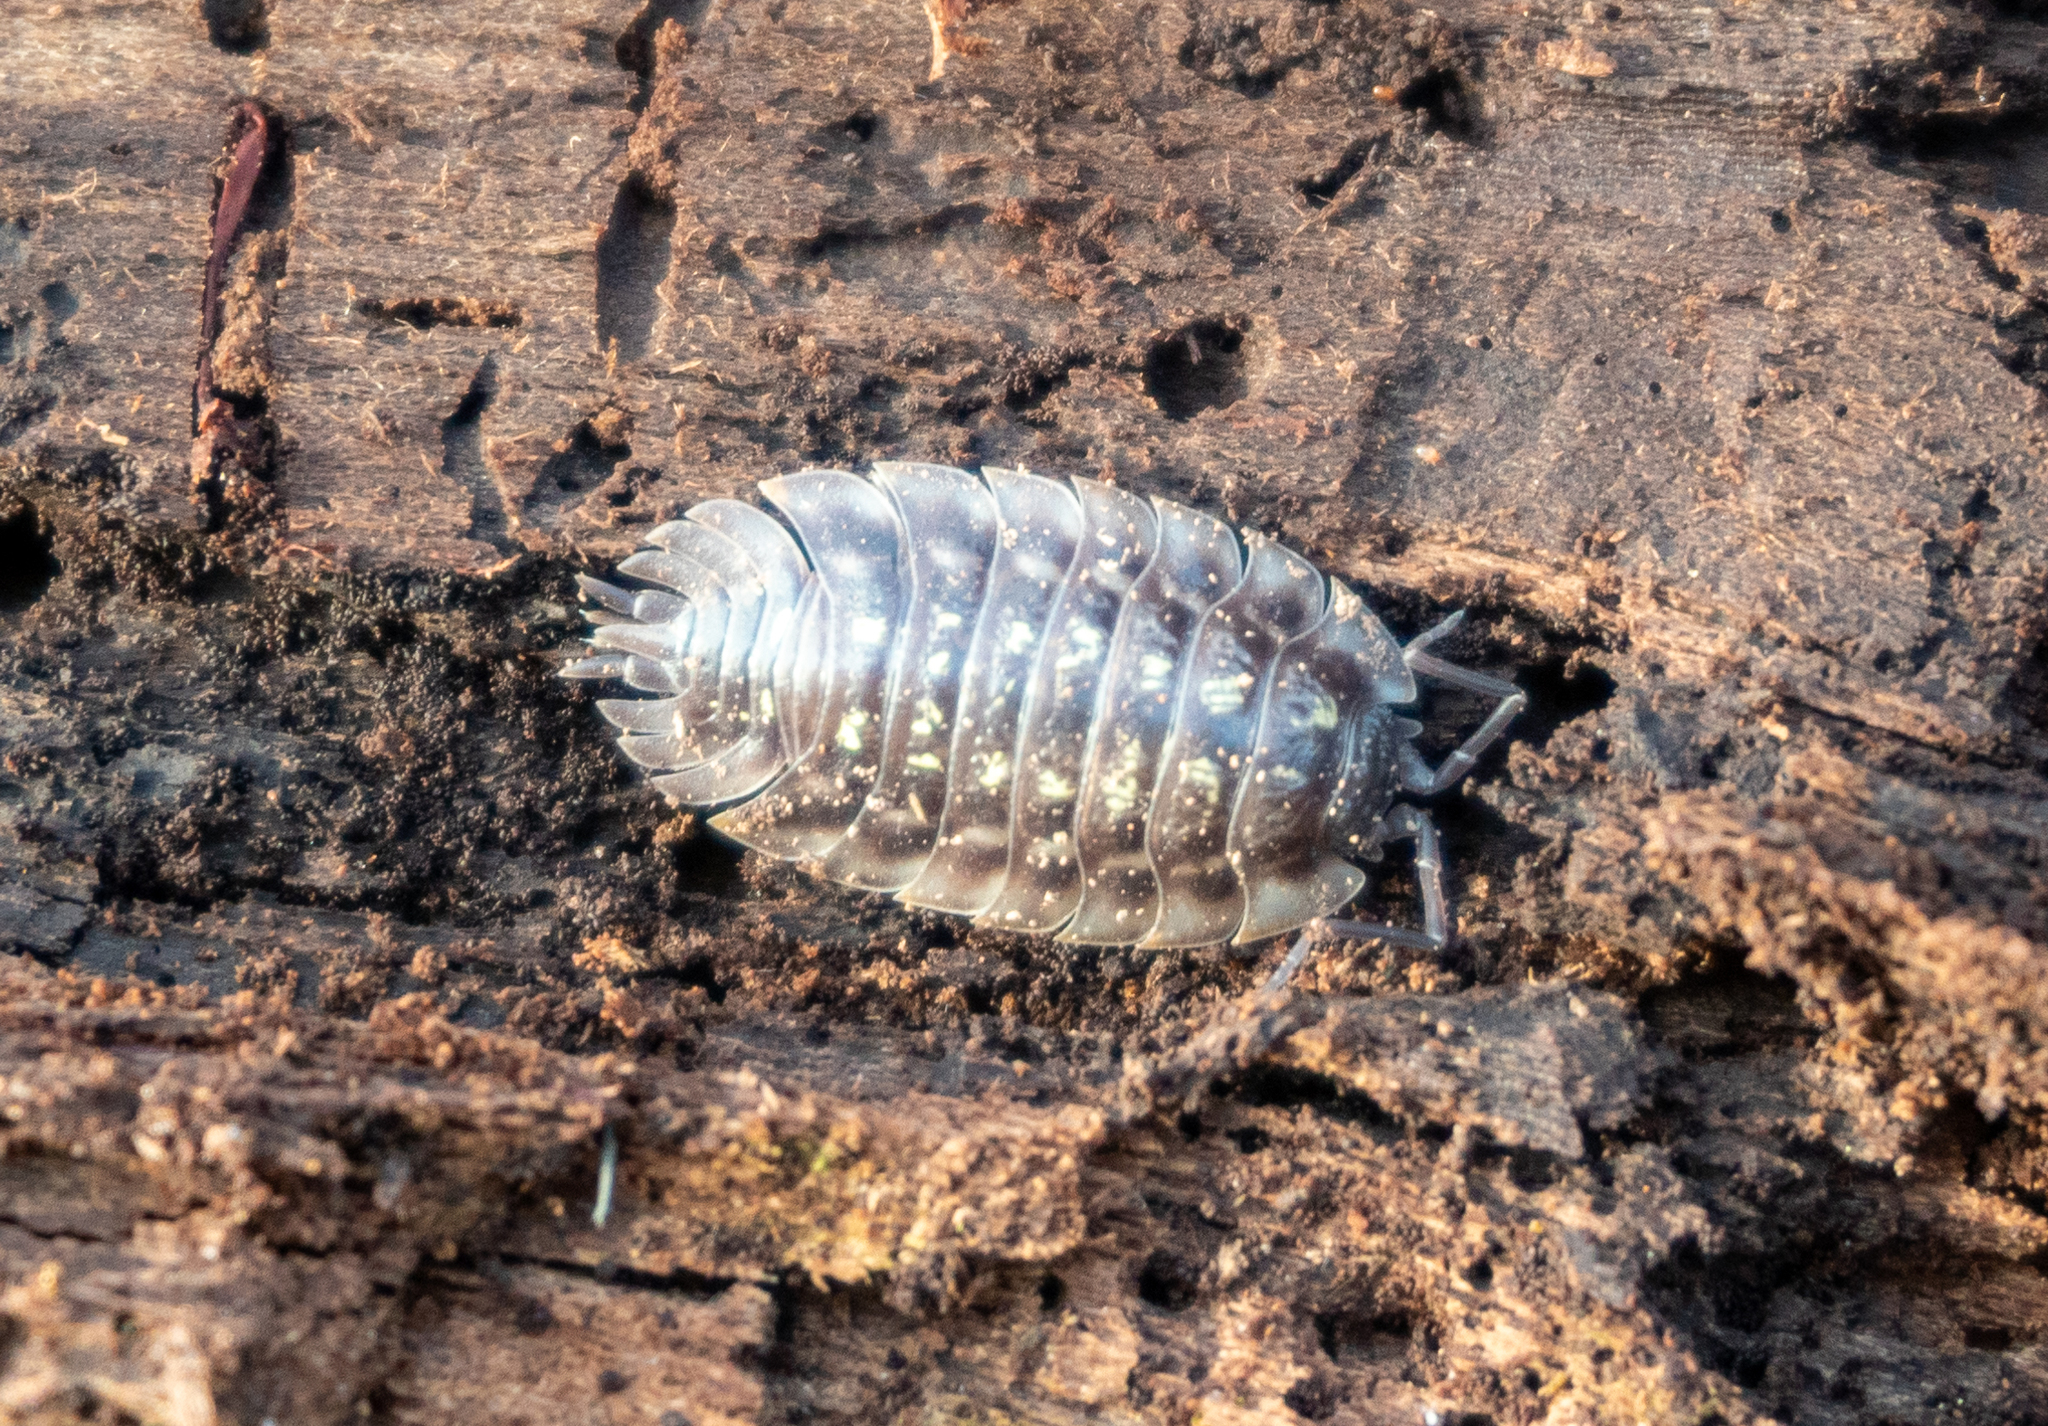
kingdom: Animalia
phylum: Arthropoda
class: Malacostraca
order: Isopoda
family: Oniscidae
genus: Oniscus
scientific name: Oniscus asellus
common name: Common shiny woodlouse
